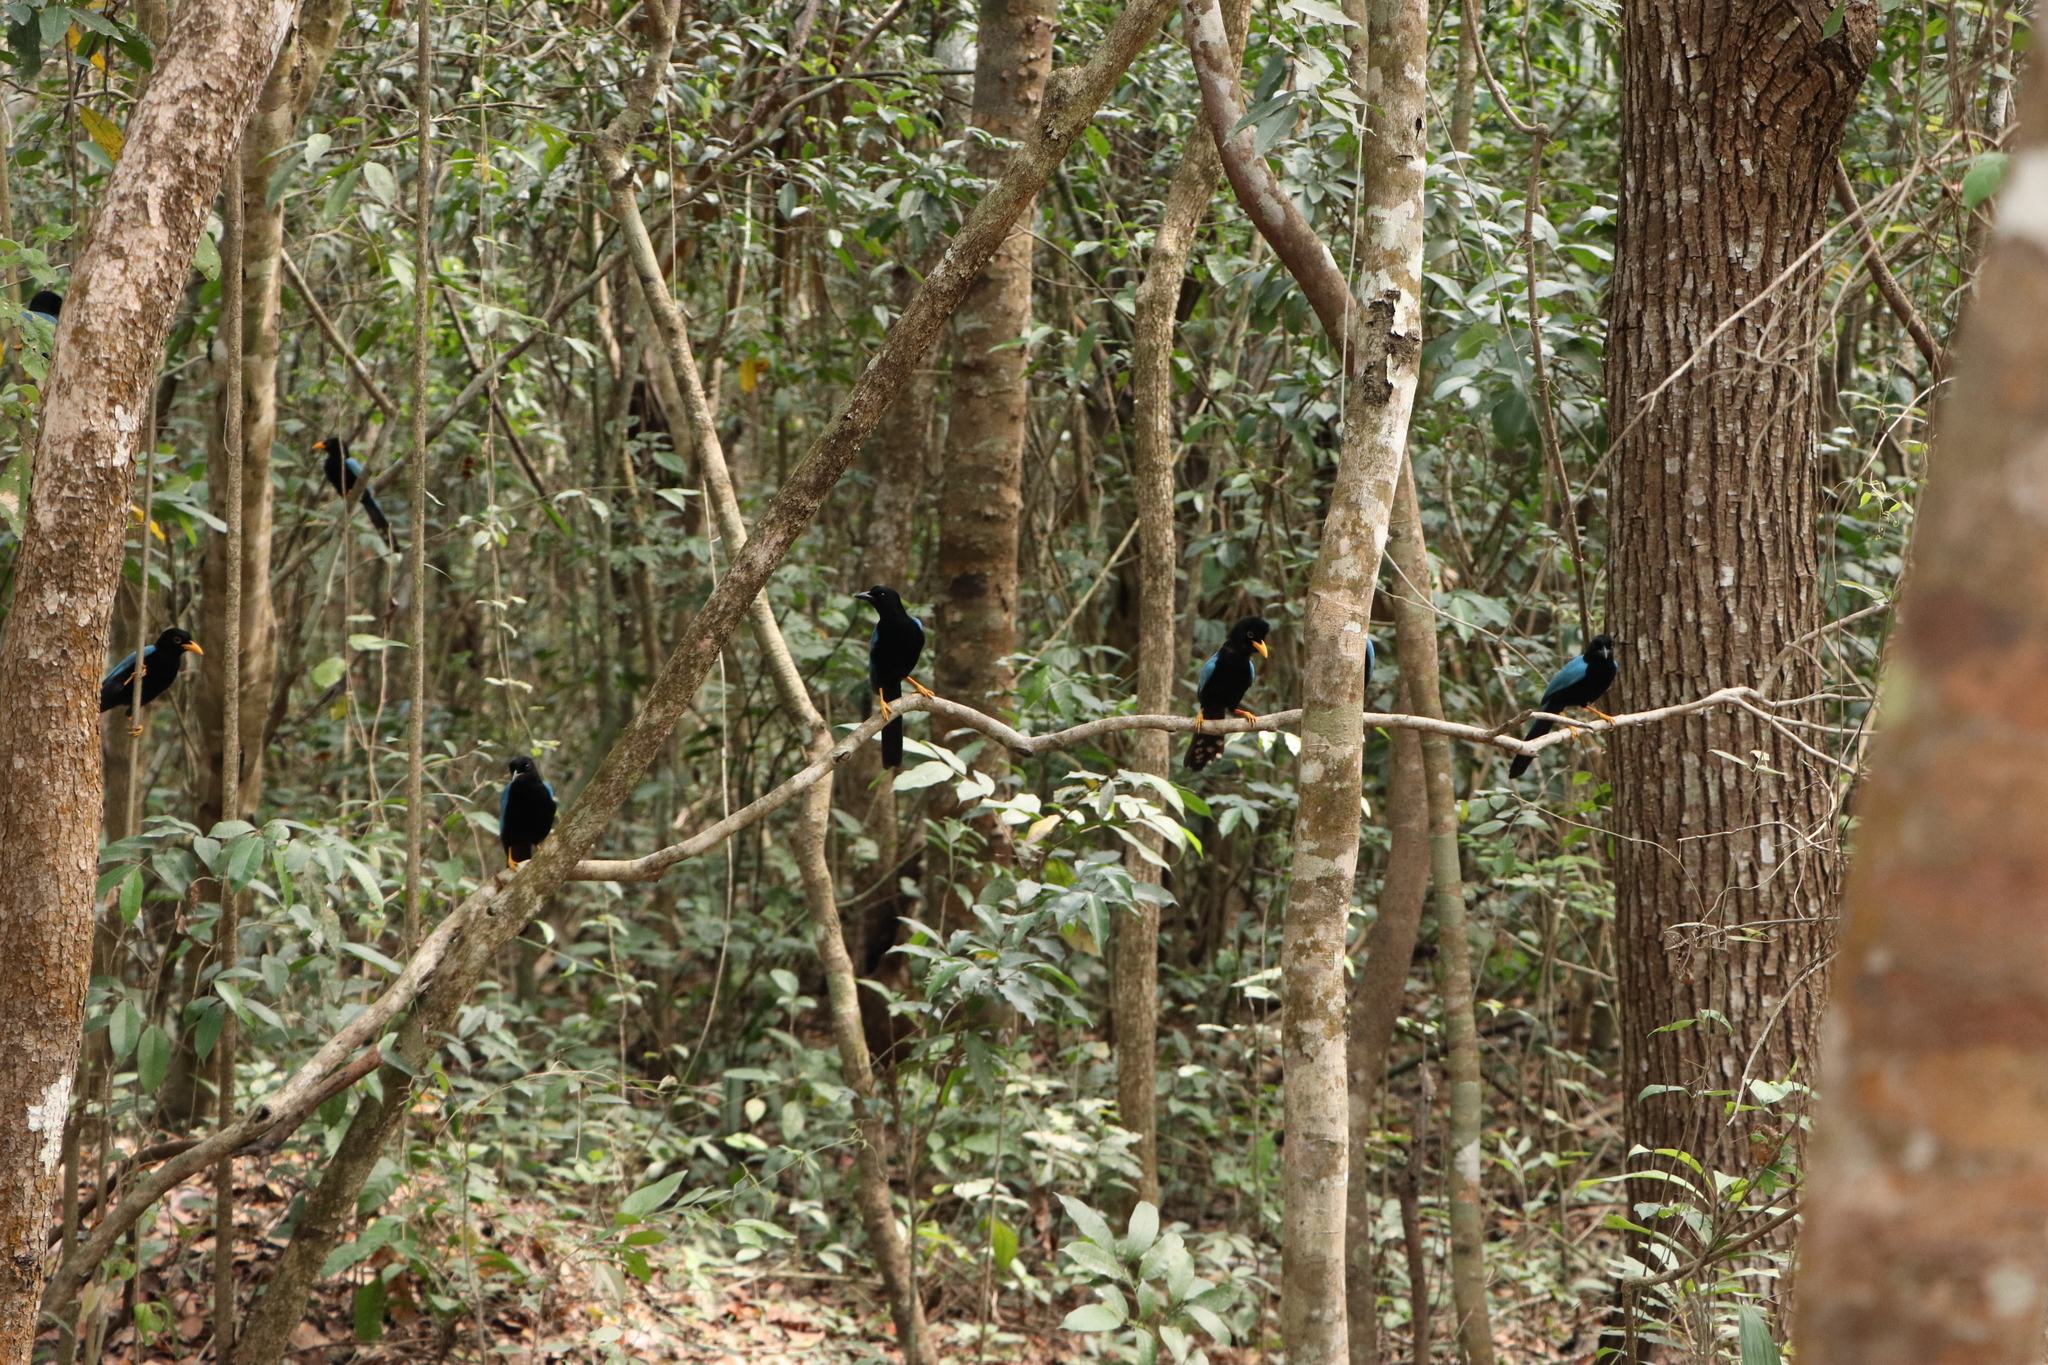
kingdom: Animalia
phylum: Chordata
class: Aves
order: Passeriformes
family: Corvidae
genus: Cyanocorax
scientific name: Cyanocorax yucatanicus
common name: Yucatan jay
